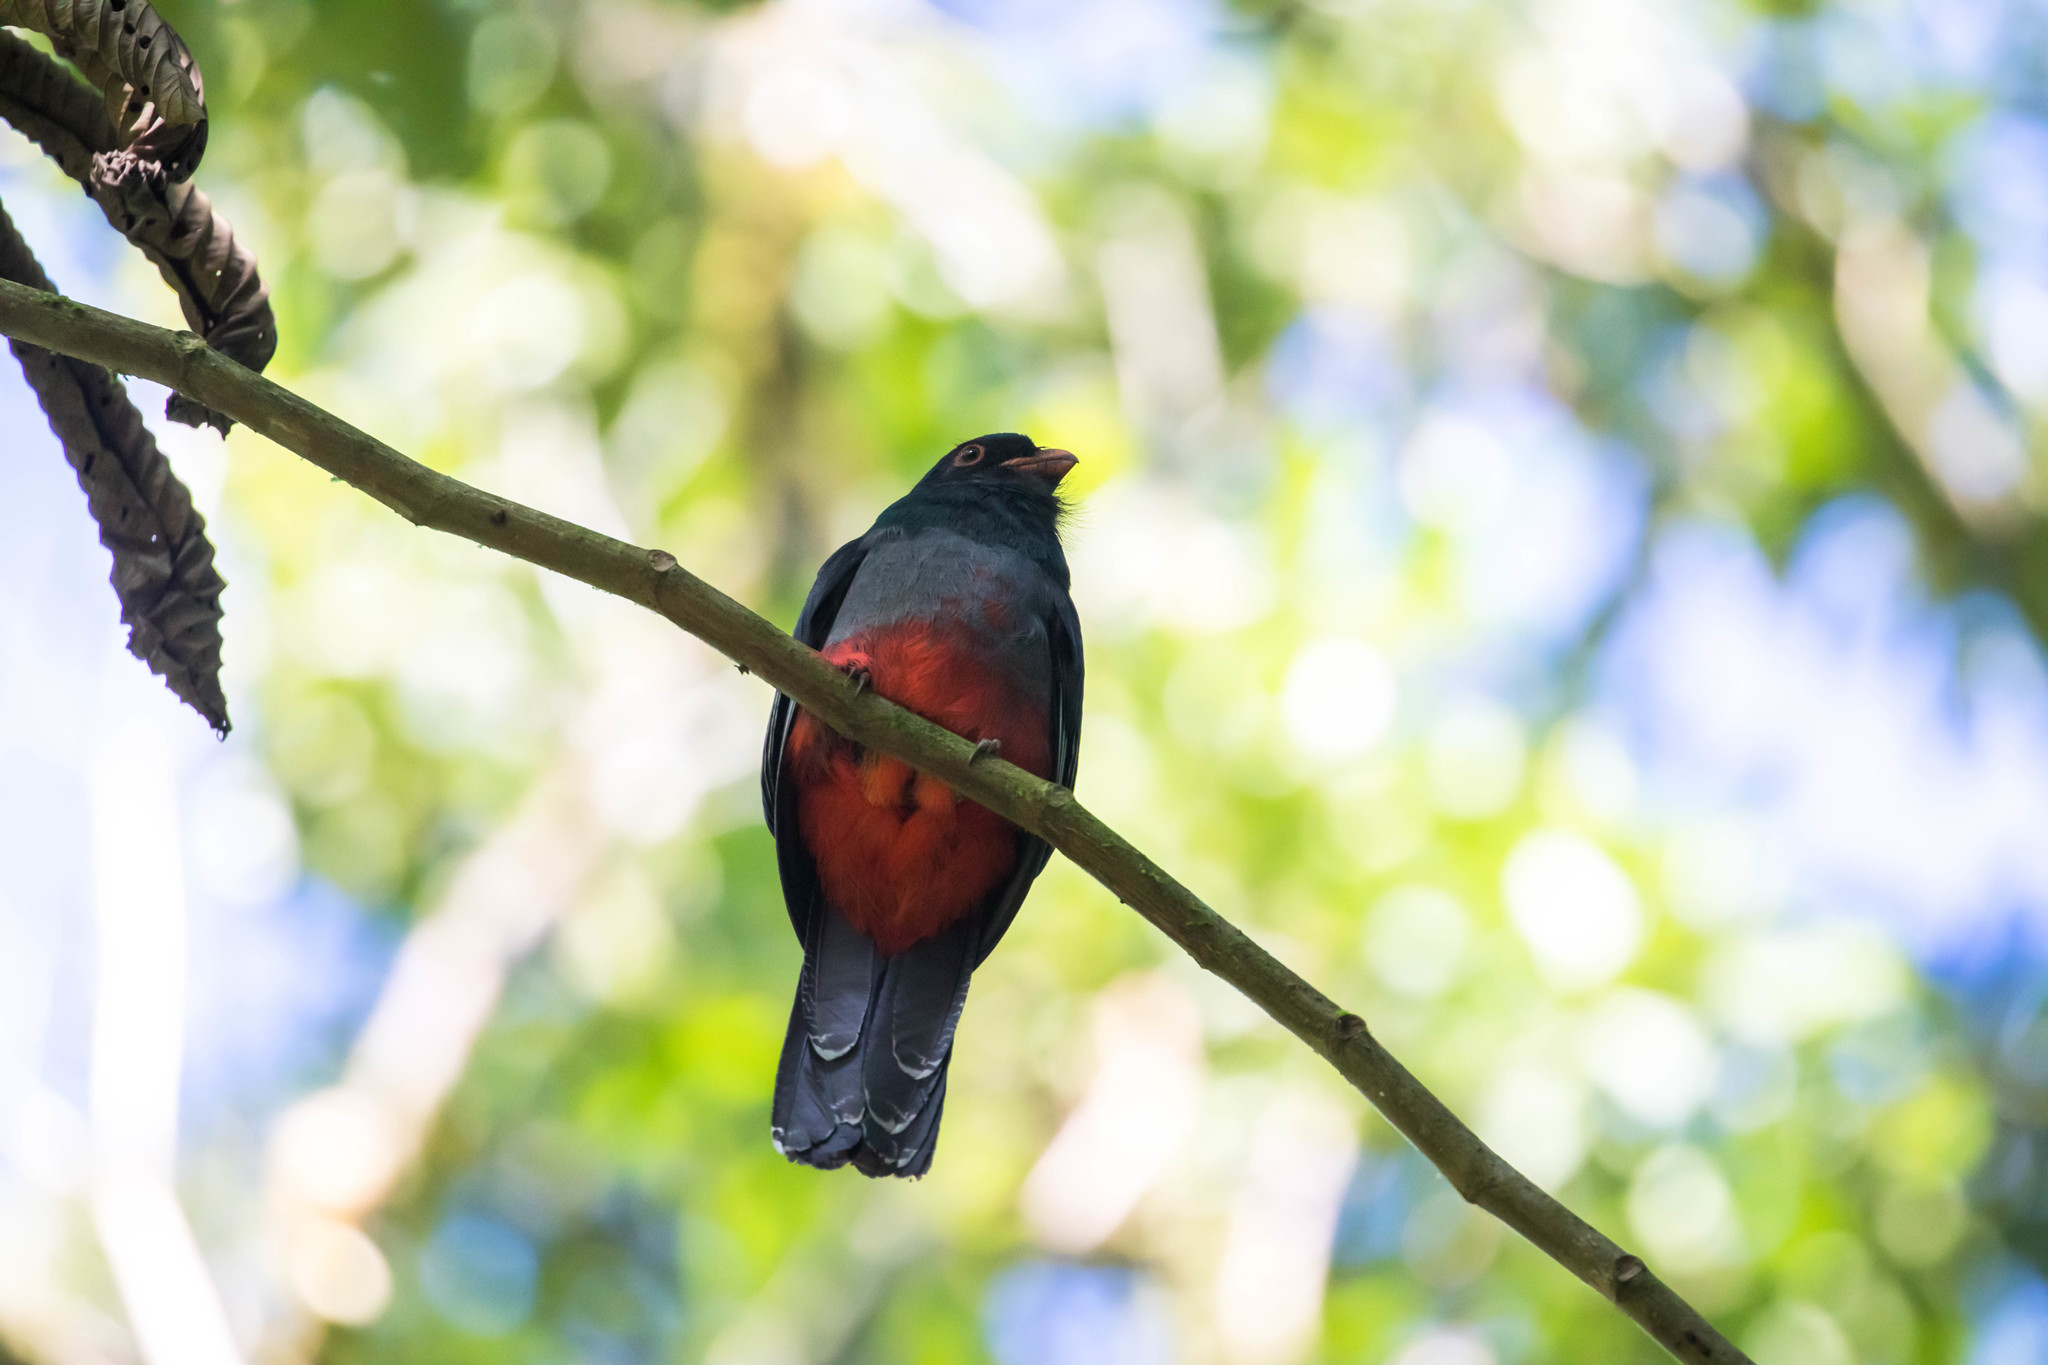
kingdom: Animalia
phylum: Chordata
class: Aves
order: Trogoniformes
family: Trogonidae
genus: Trogon
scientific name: Trogon massena
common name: Slaty-tailed trogon
